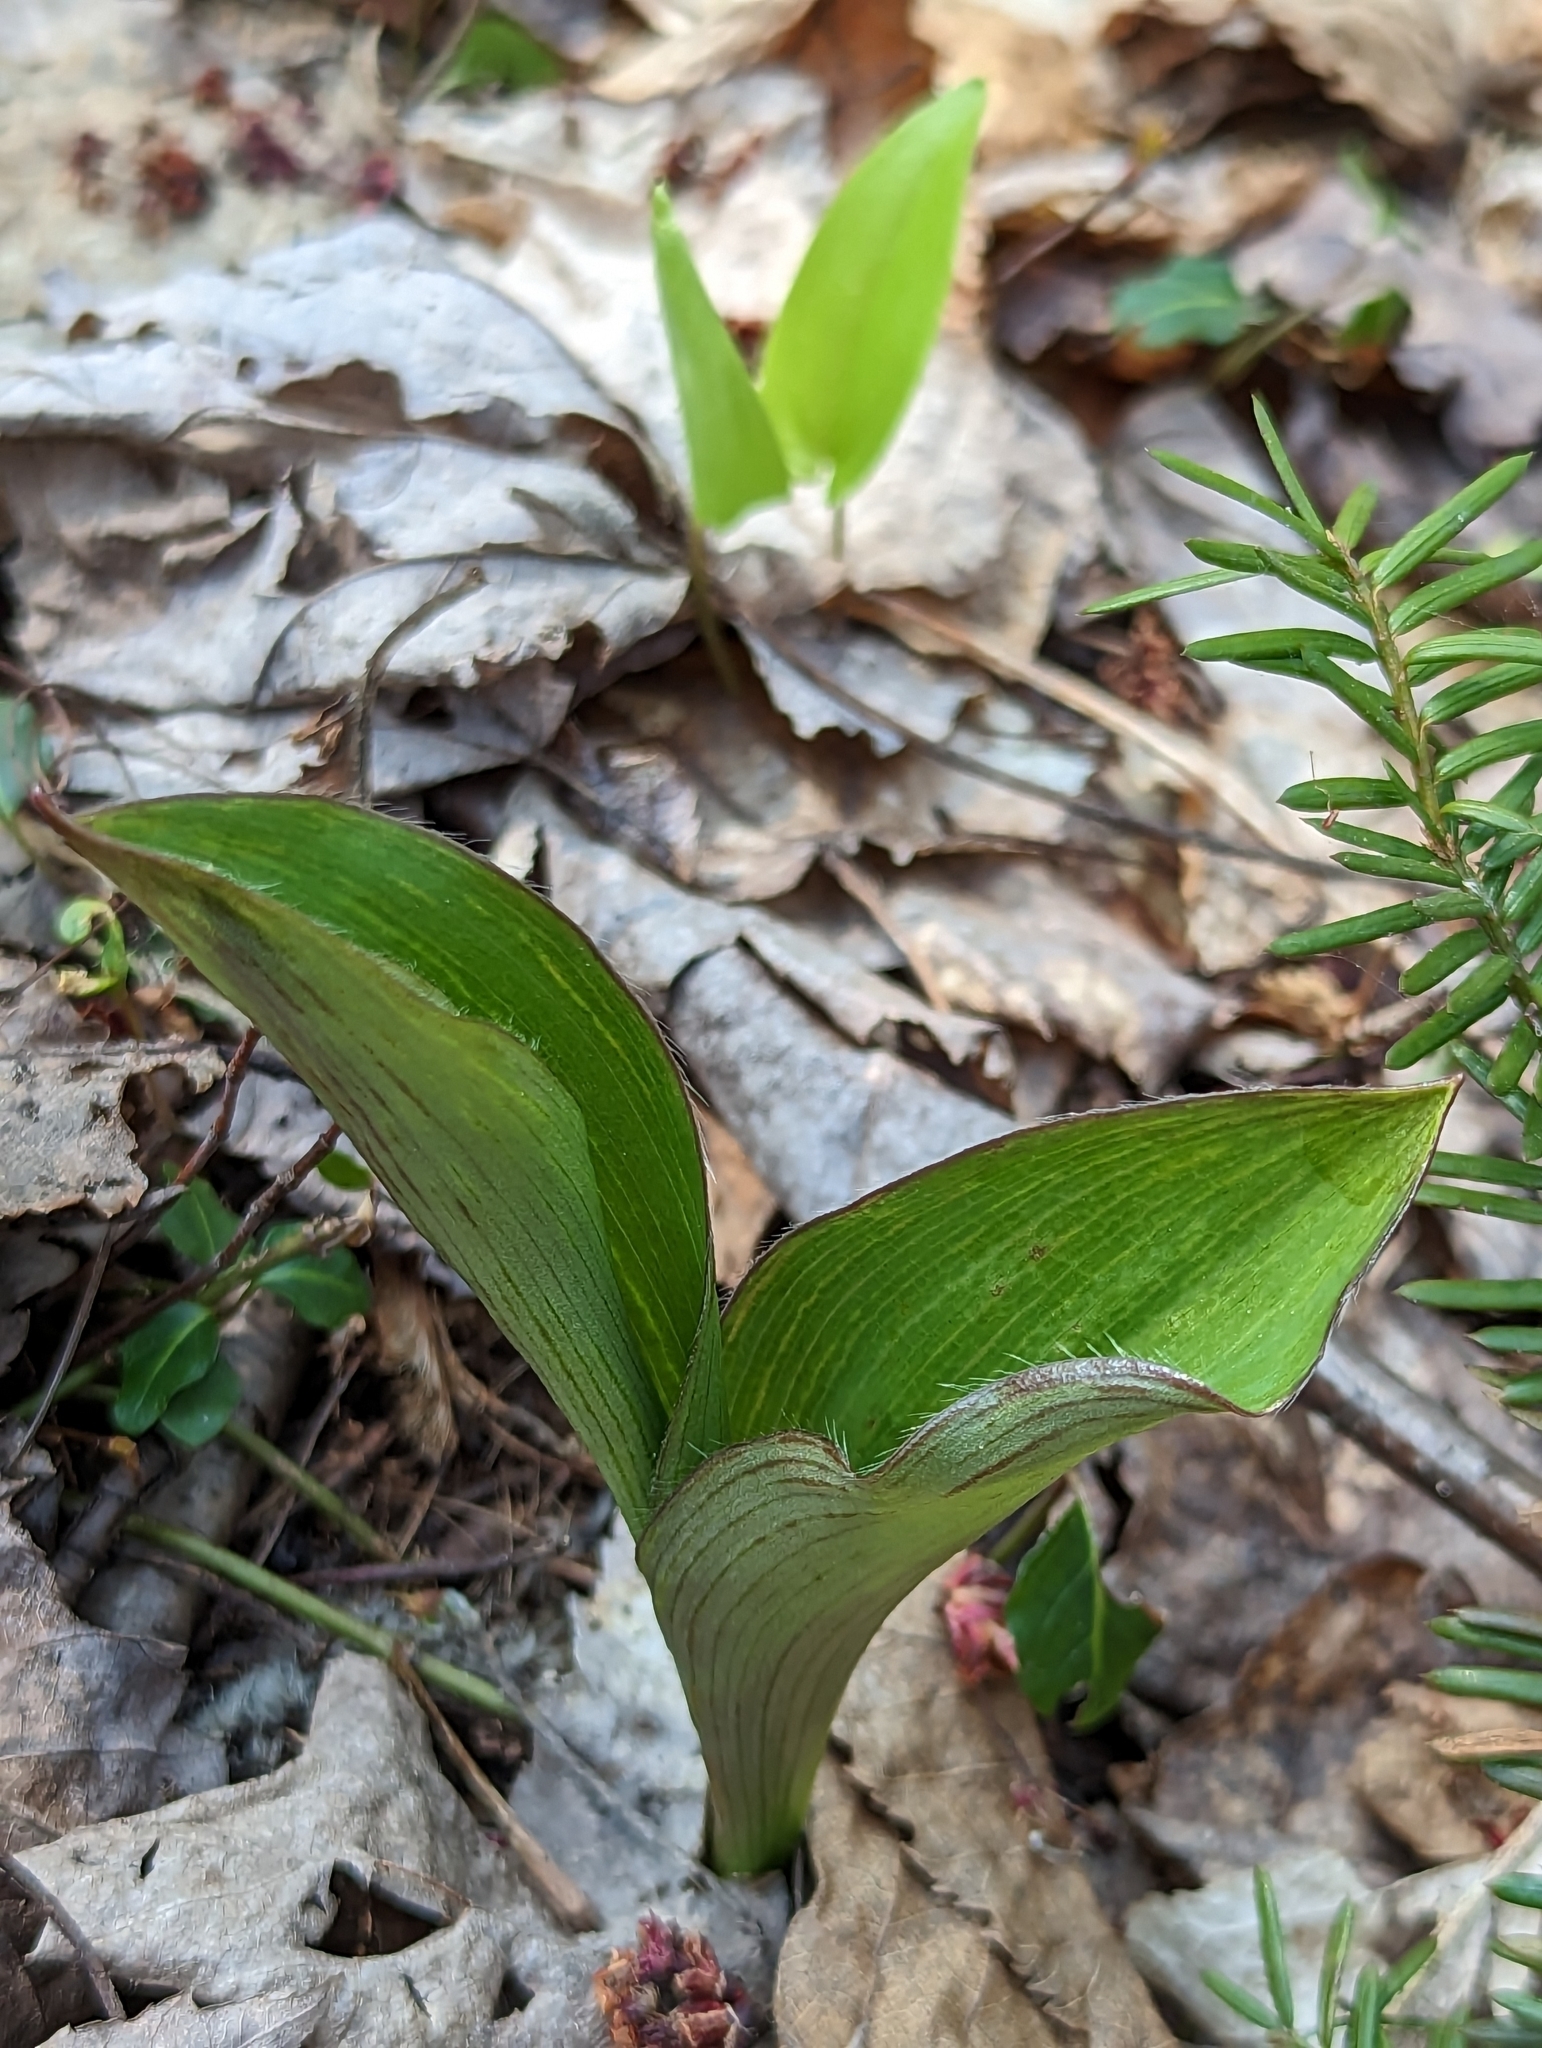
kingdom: Plantae
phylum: Tracheophyta
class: Liliopsida
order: Liliales
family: Liliaceae
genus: Clintonia
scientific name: Clintonia borealis
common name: Yellow clintonia
